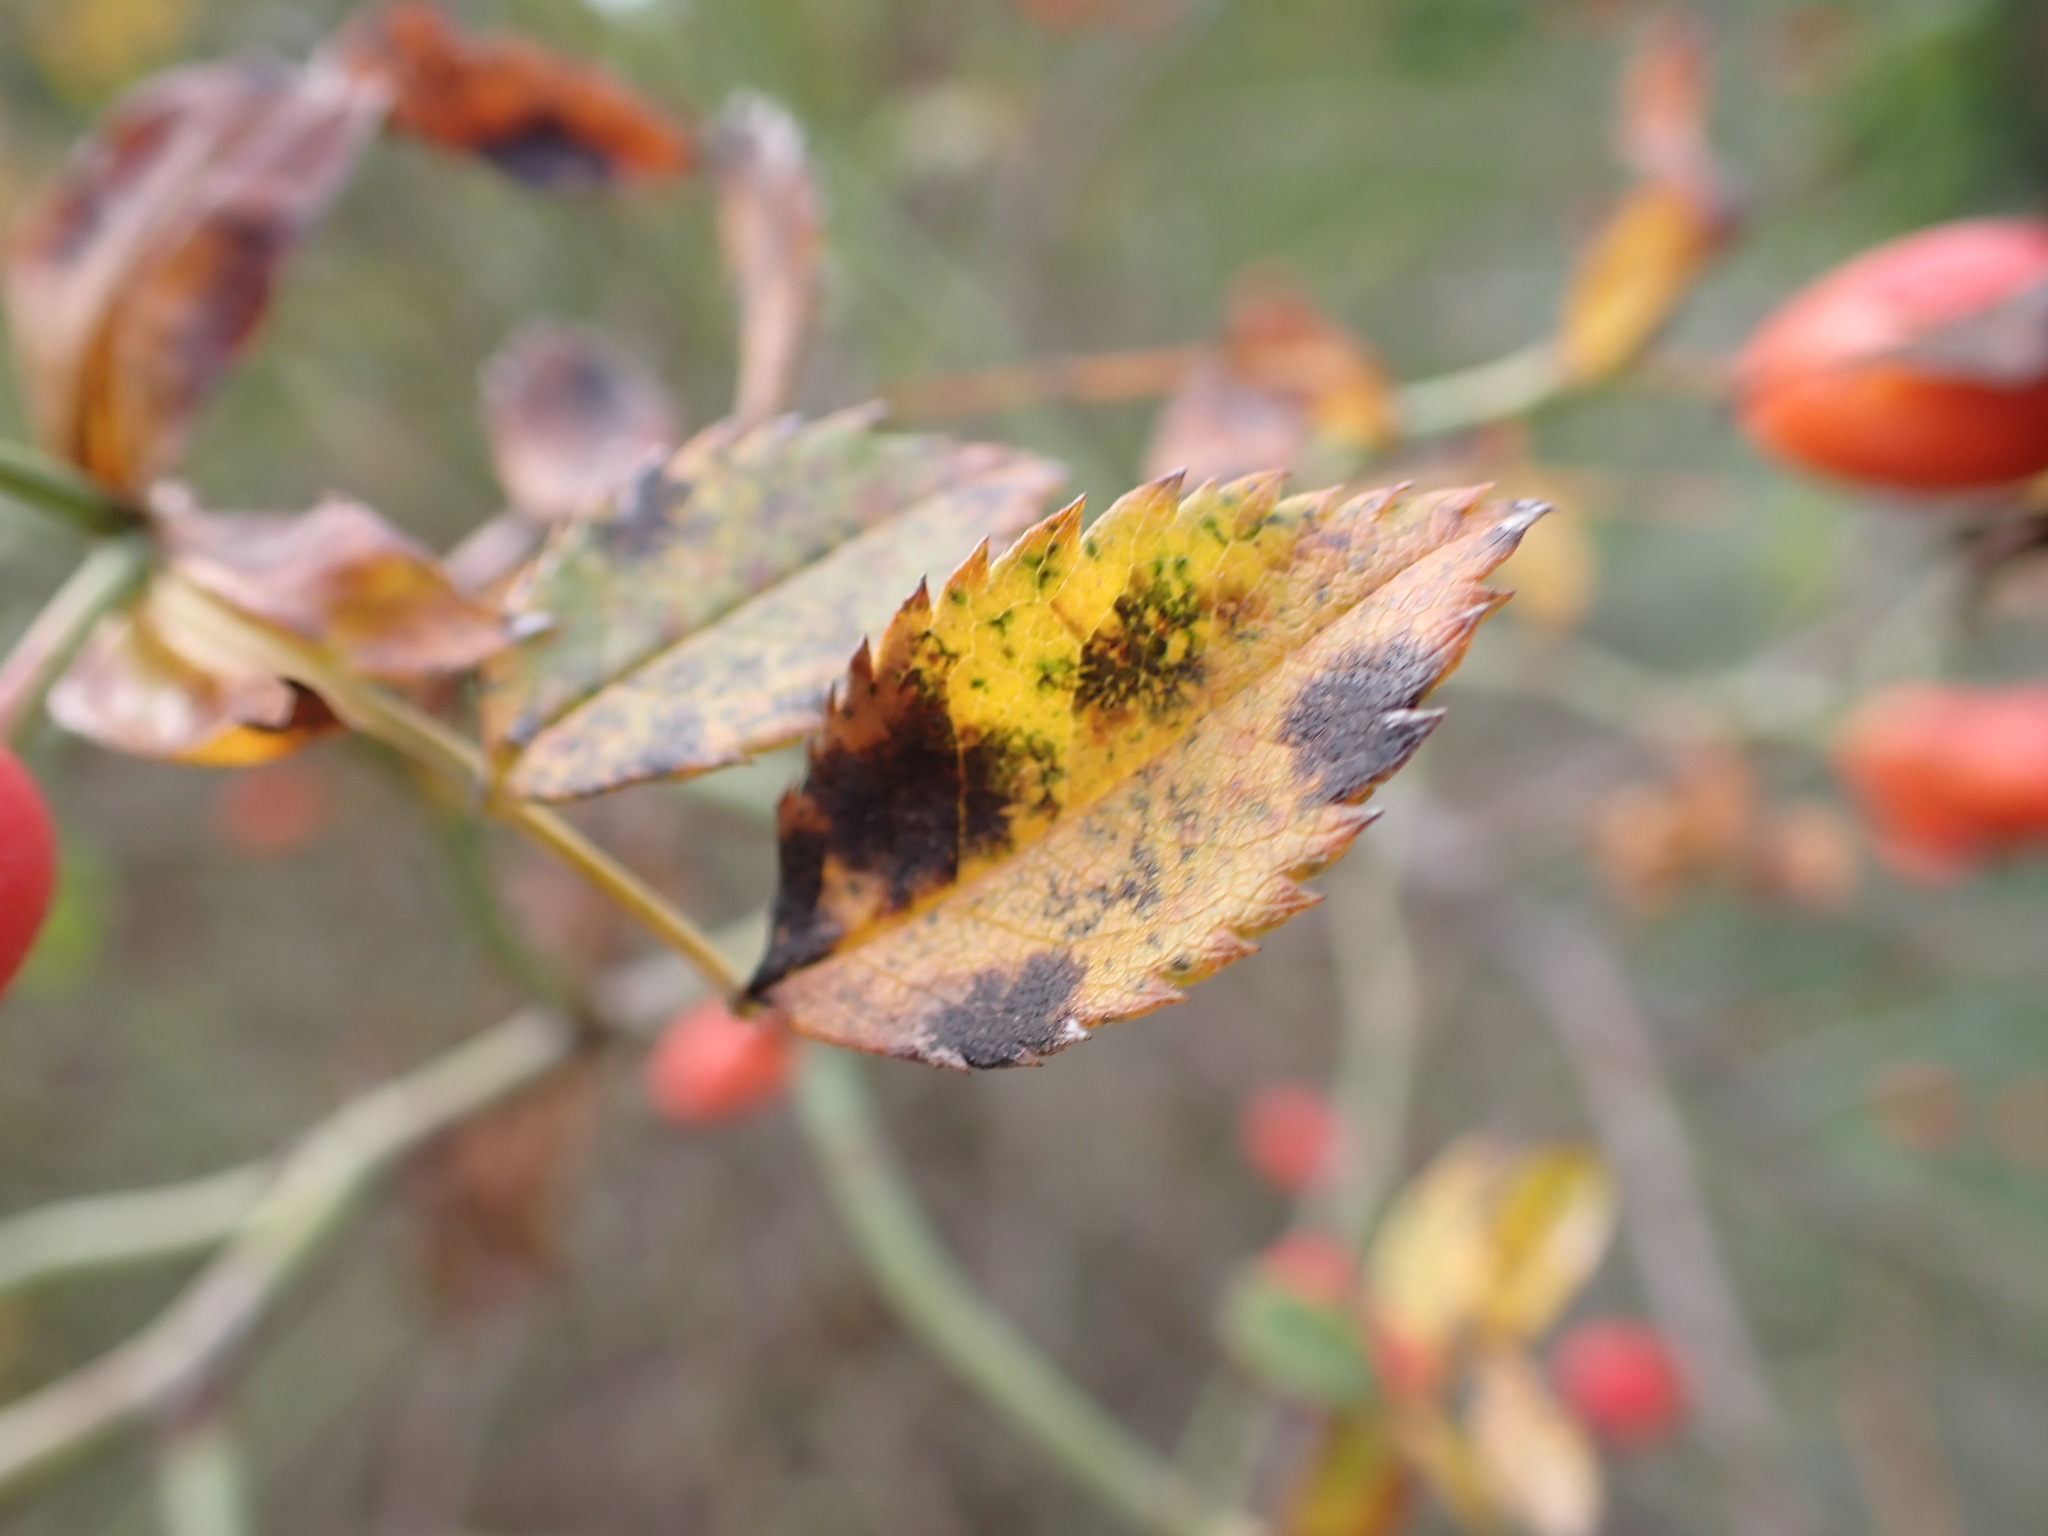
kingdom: Plantae
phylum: Tracheophyta
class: Magnoliopsida
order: Rosales
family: Rosaceae
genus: Rosa
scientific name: Rosa canina
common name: Dog rose
